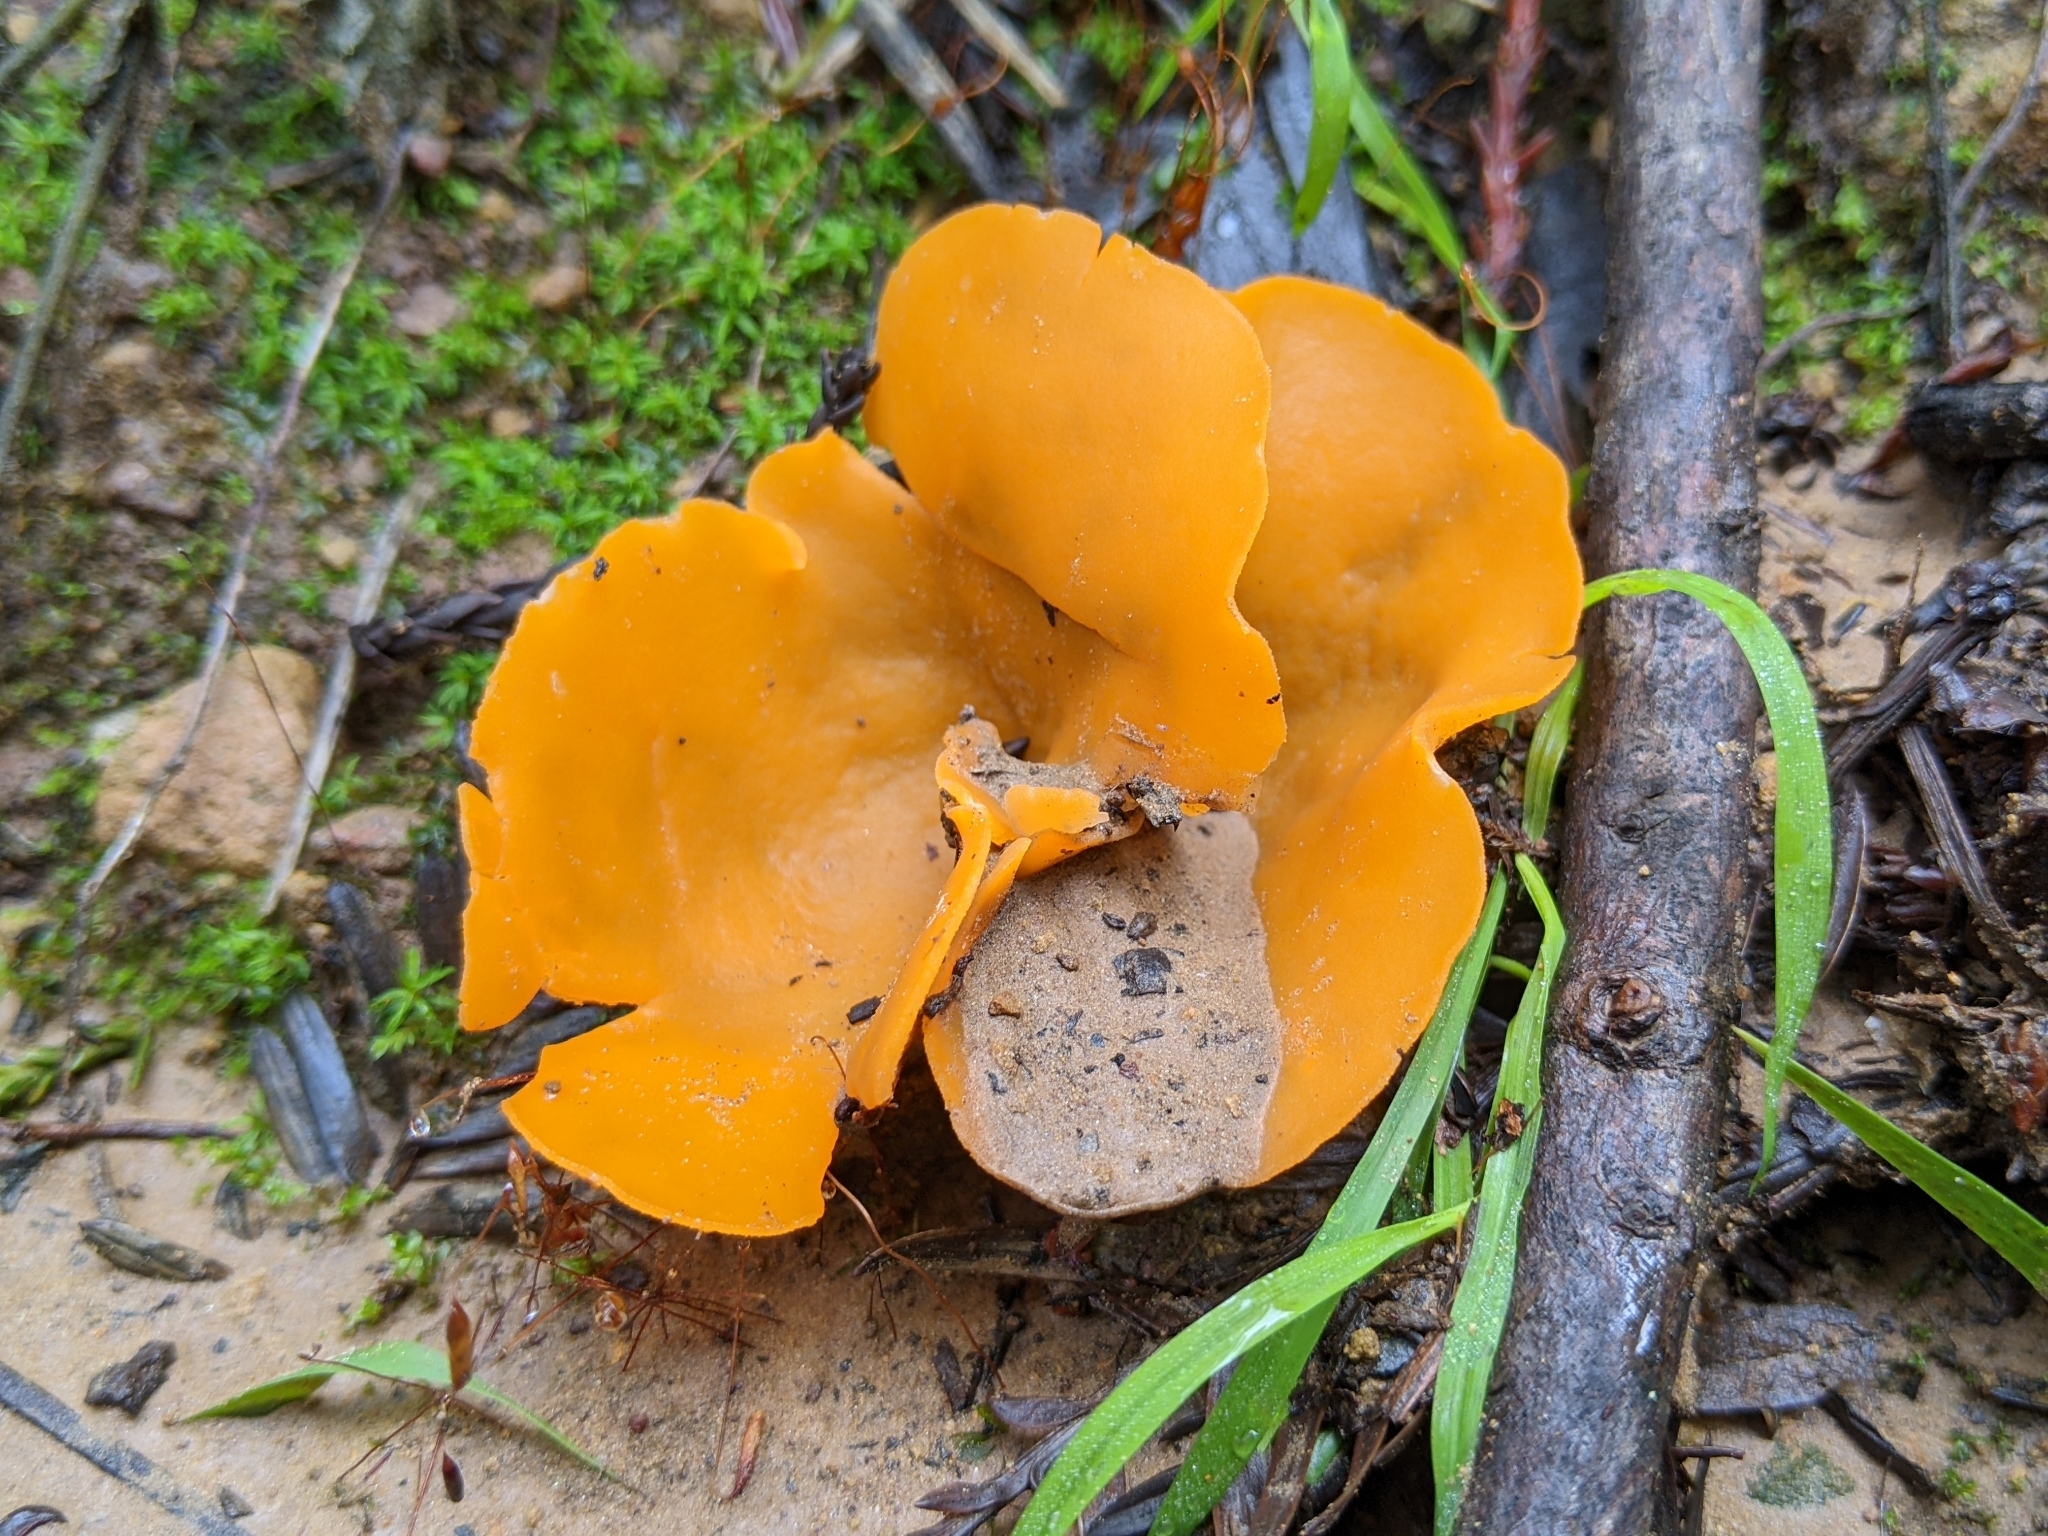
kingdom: Fungi
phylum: Ascomycota
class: Pezizomycetes
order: Pezizales
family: Pyronemataceae
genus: Aleuria
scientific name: Aleuria aurantia
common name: Orange peel fungus
